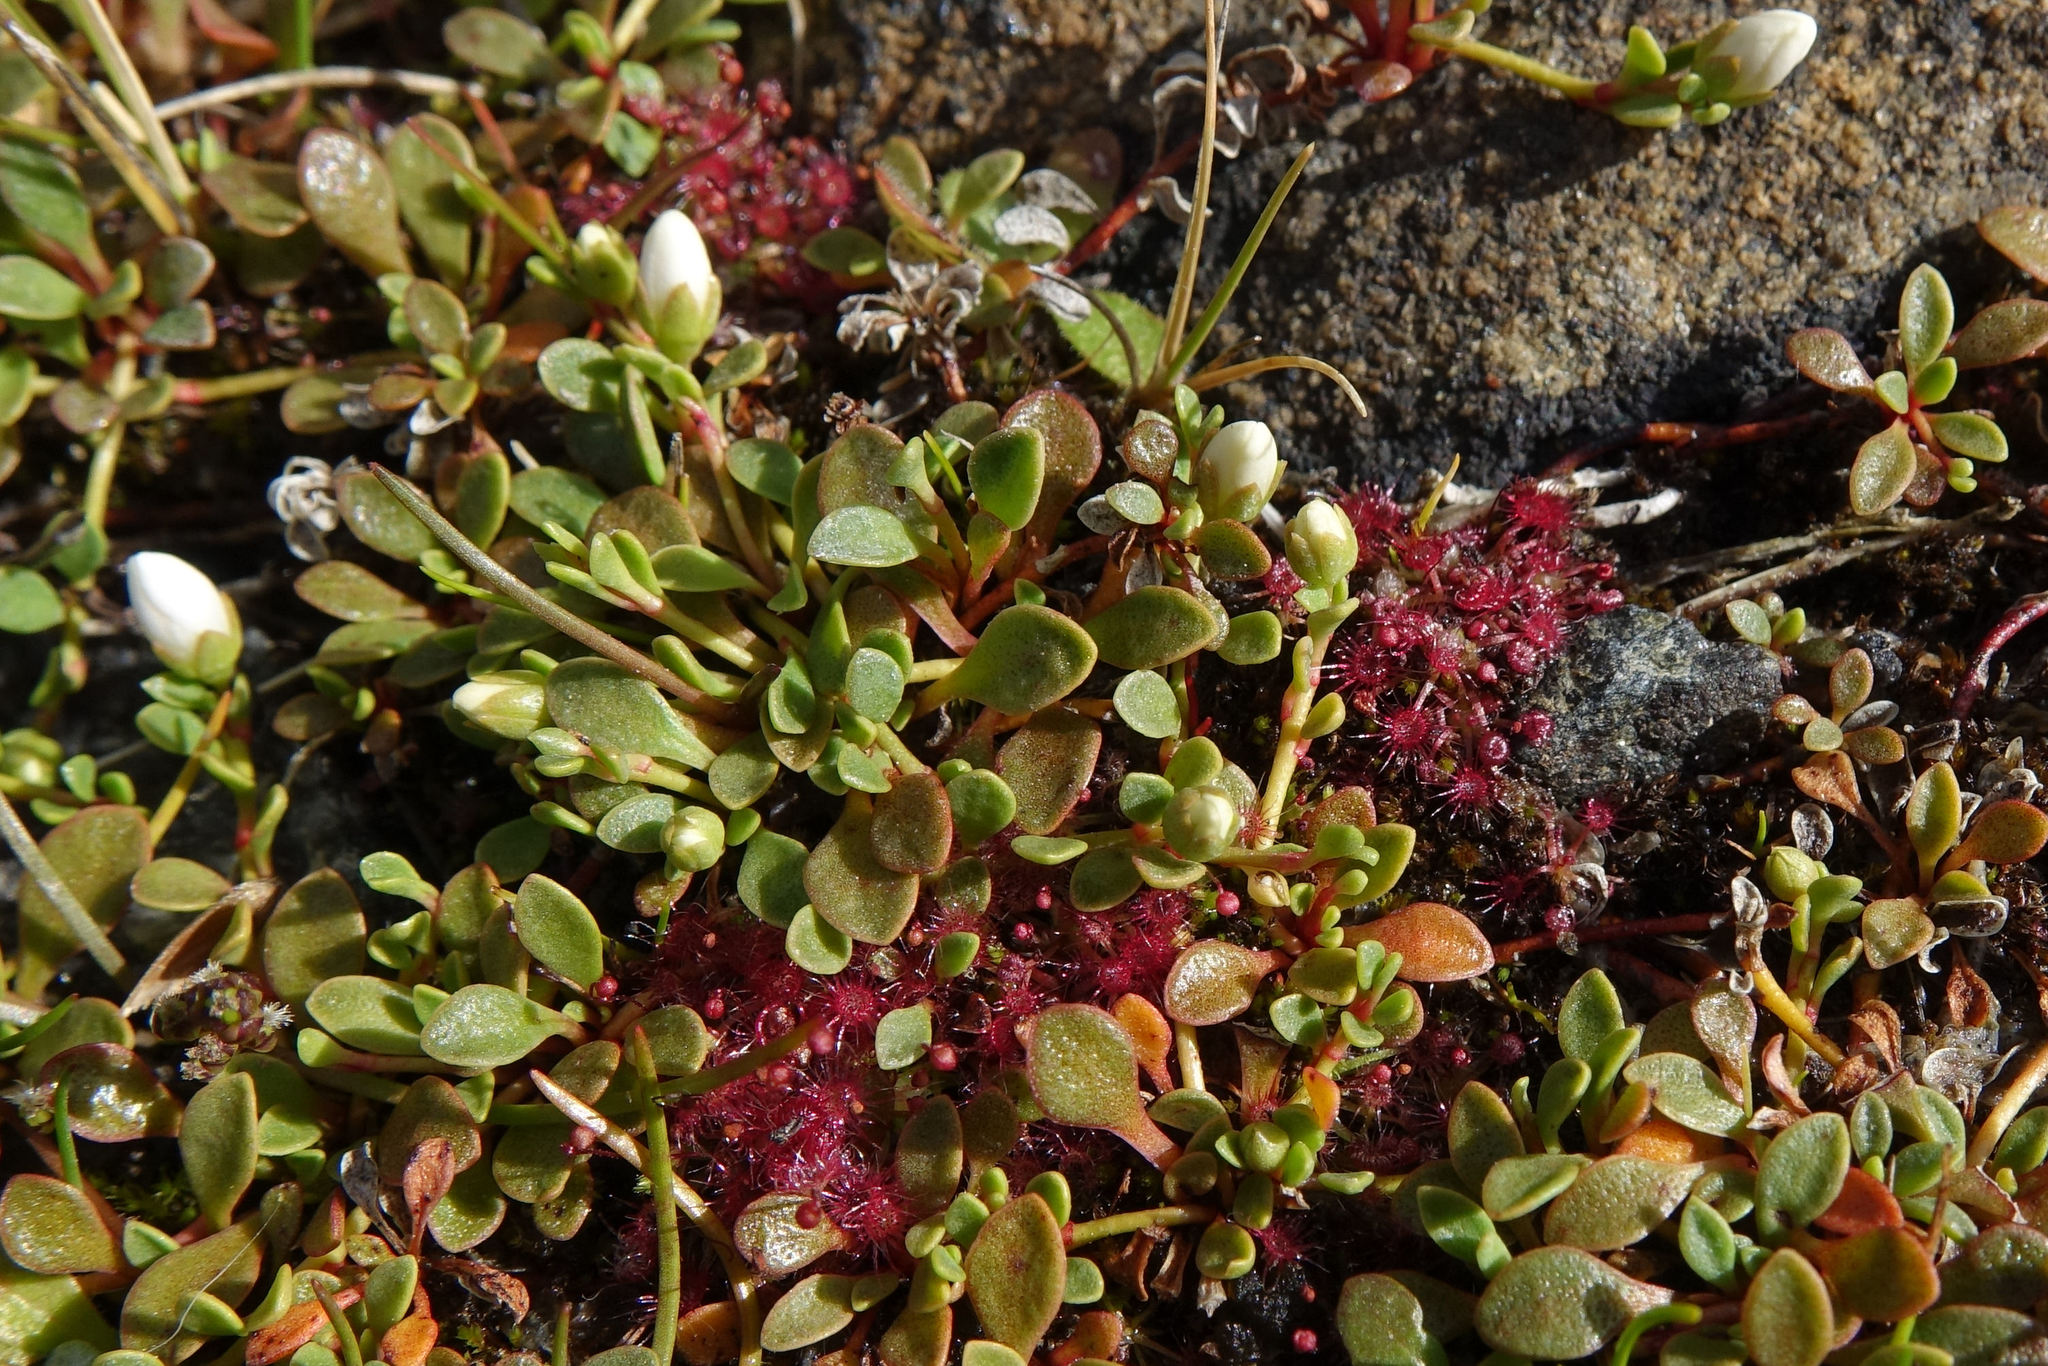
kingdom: Plantae
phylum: Tracheophyta
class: Magnoliopsida
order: Caryophyllales
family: Droseraceae
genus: Drosera
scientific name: Drosera pygmaea
